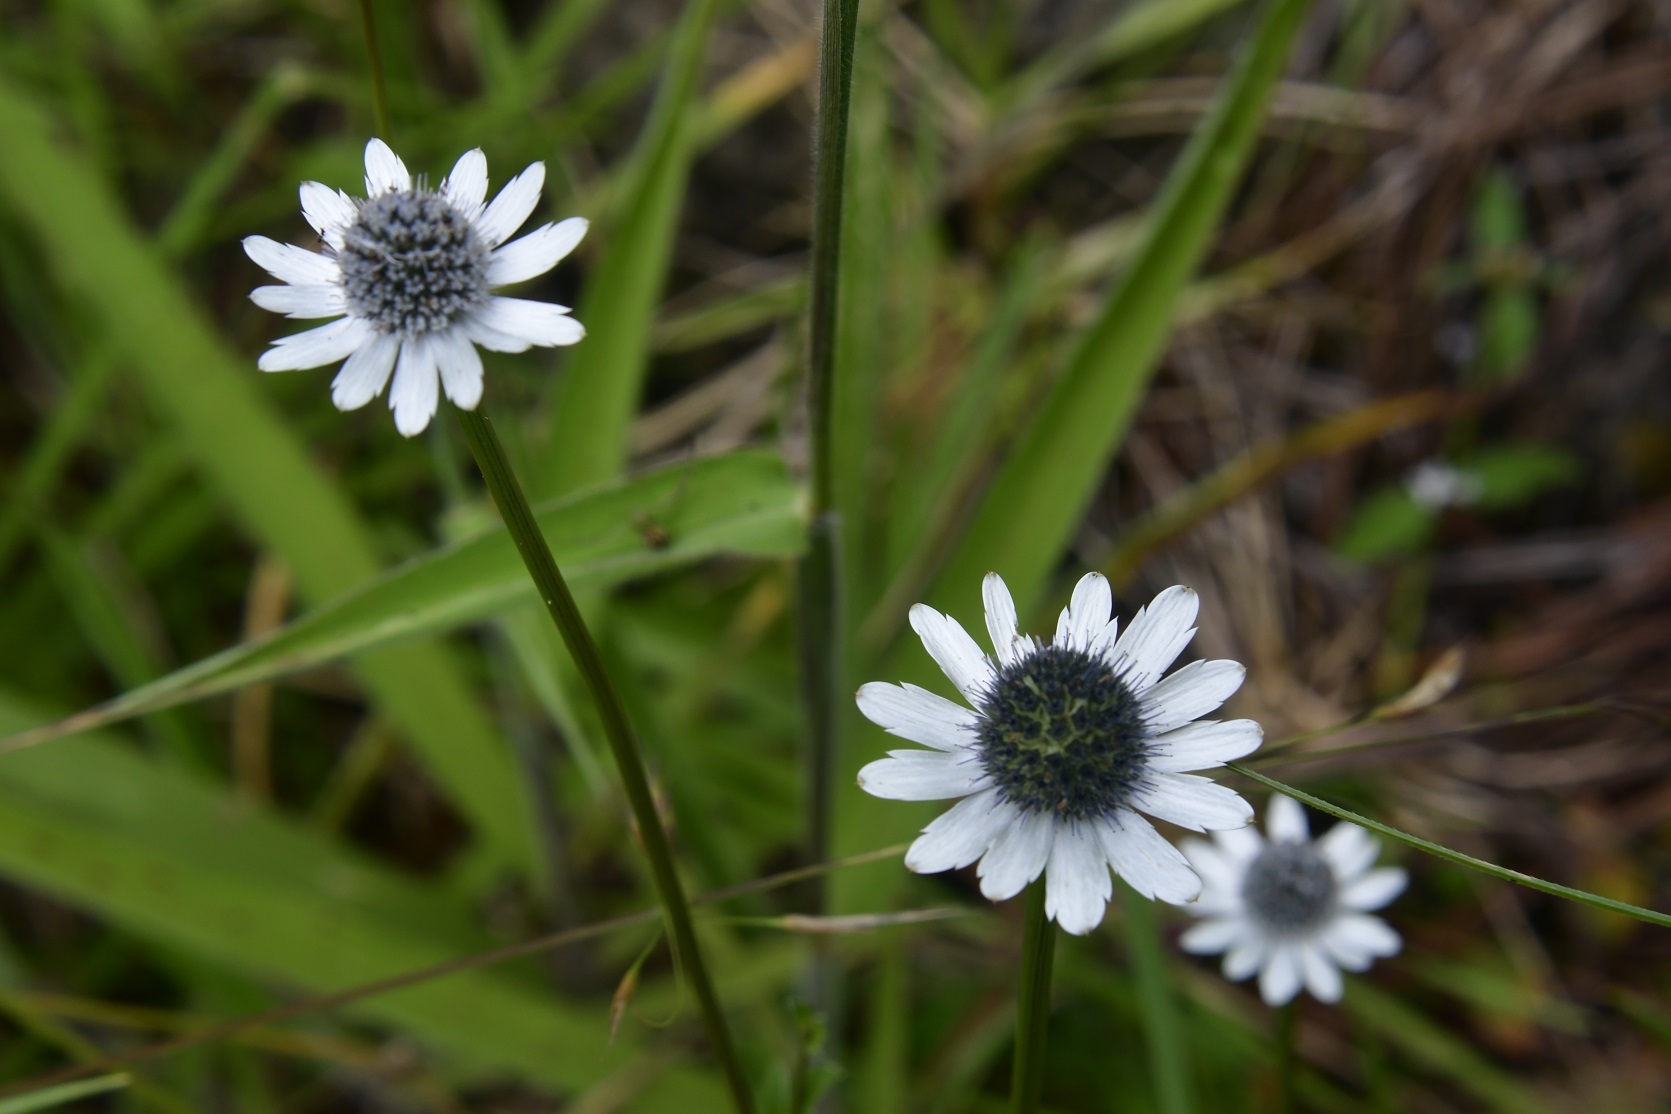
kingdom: Plantae
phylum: Tracheophyta
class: Magnoliopsida
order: Apiales
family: Apiaceae
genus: Eryngium
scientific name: Eryngium scaposum
